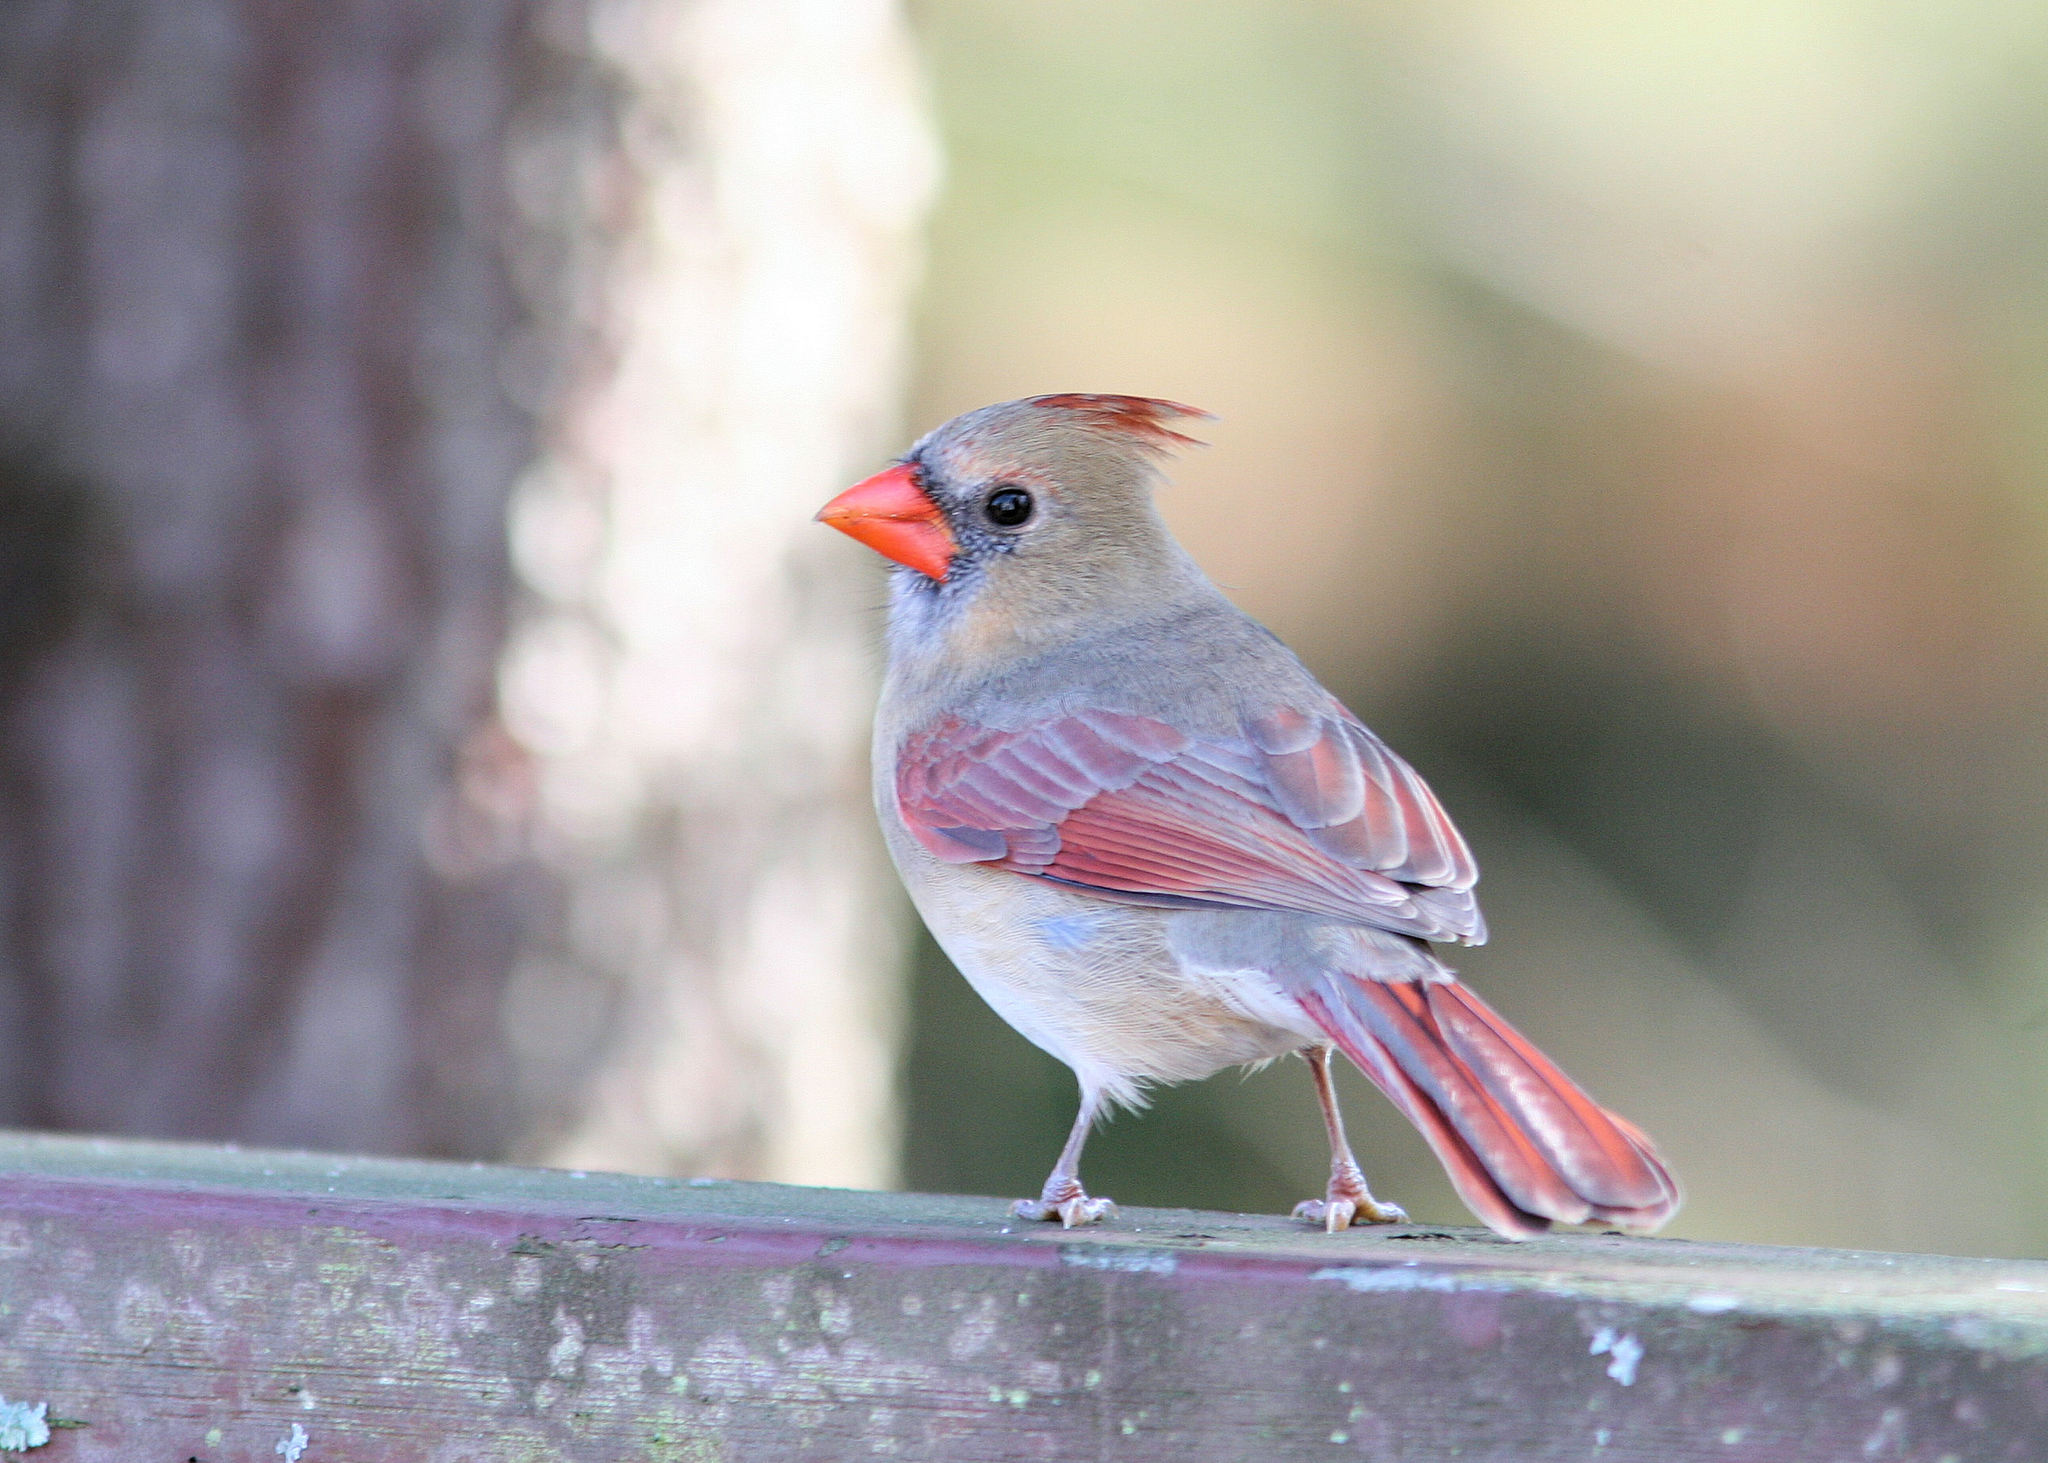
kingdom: Animalia
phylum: Chordata
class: Aves
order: Passeriformes
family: Cardinalidae
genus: Cardinalis
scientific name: Cardinalis cardinalis
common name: Northern cardinal
